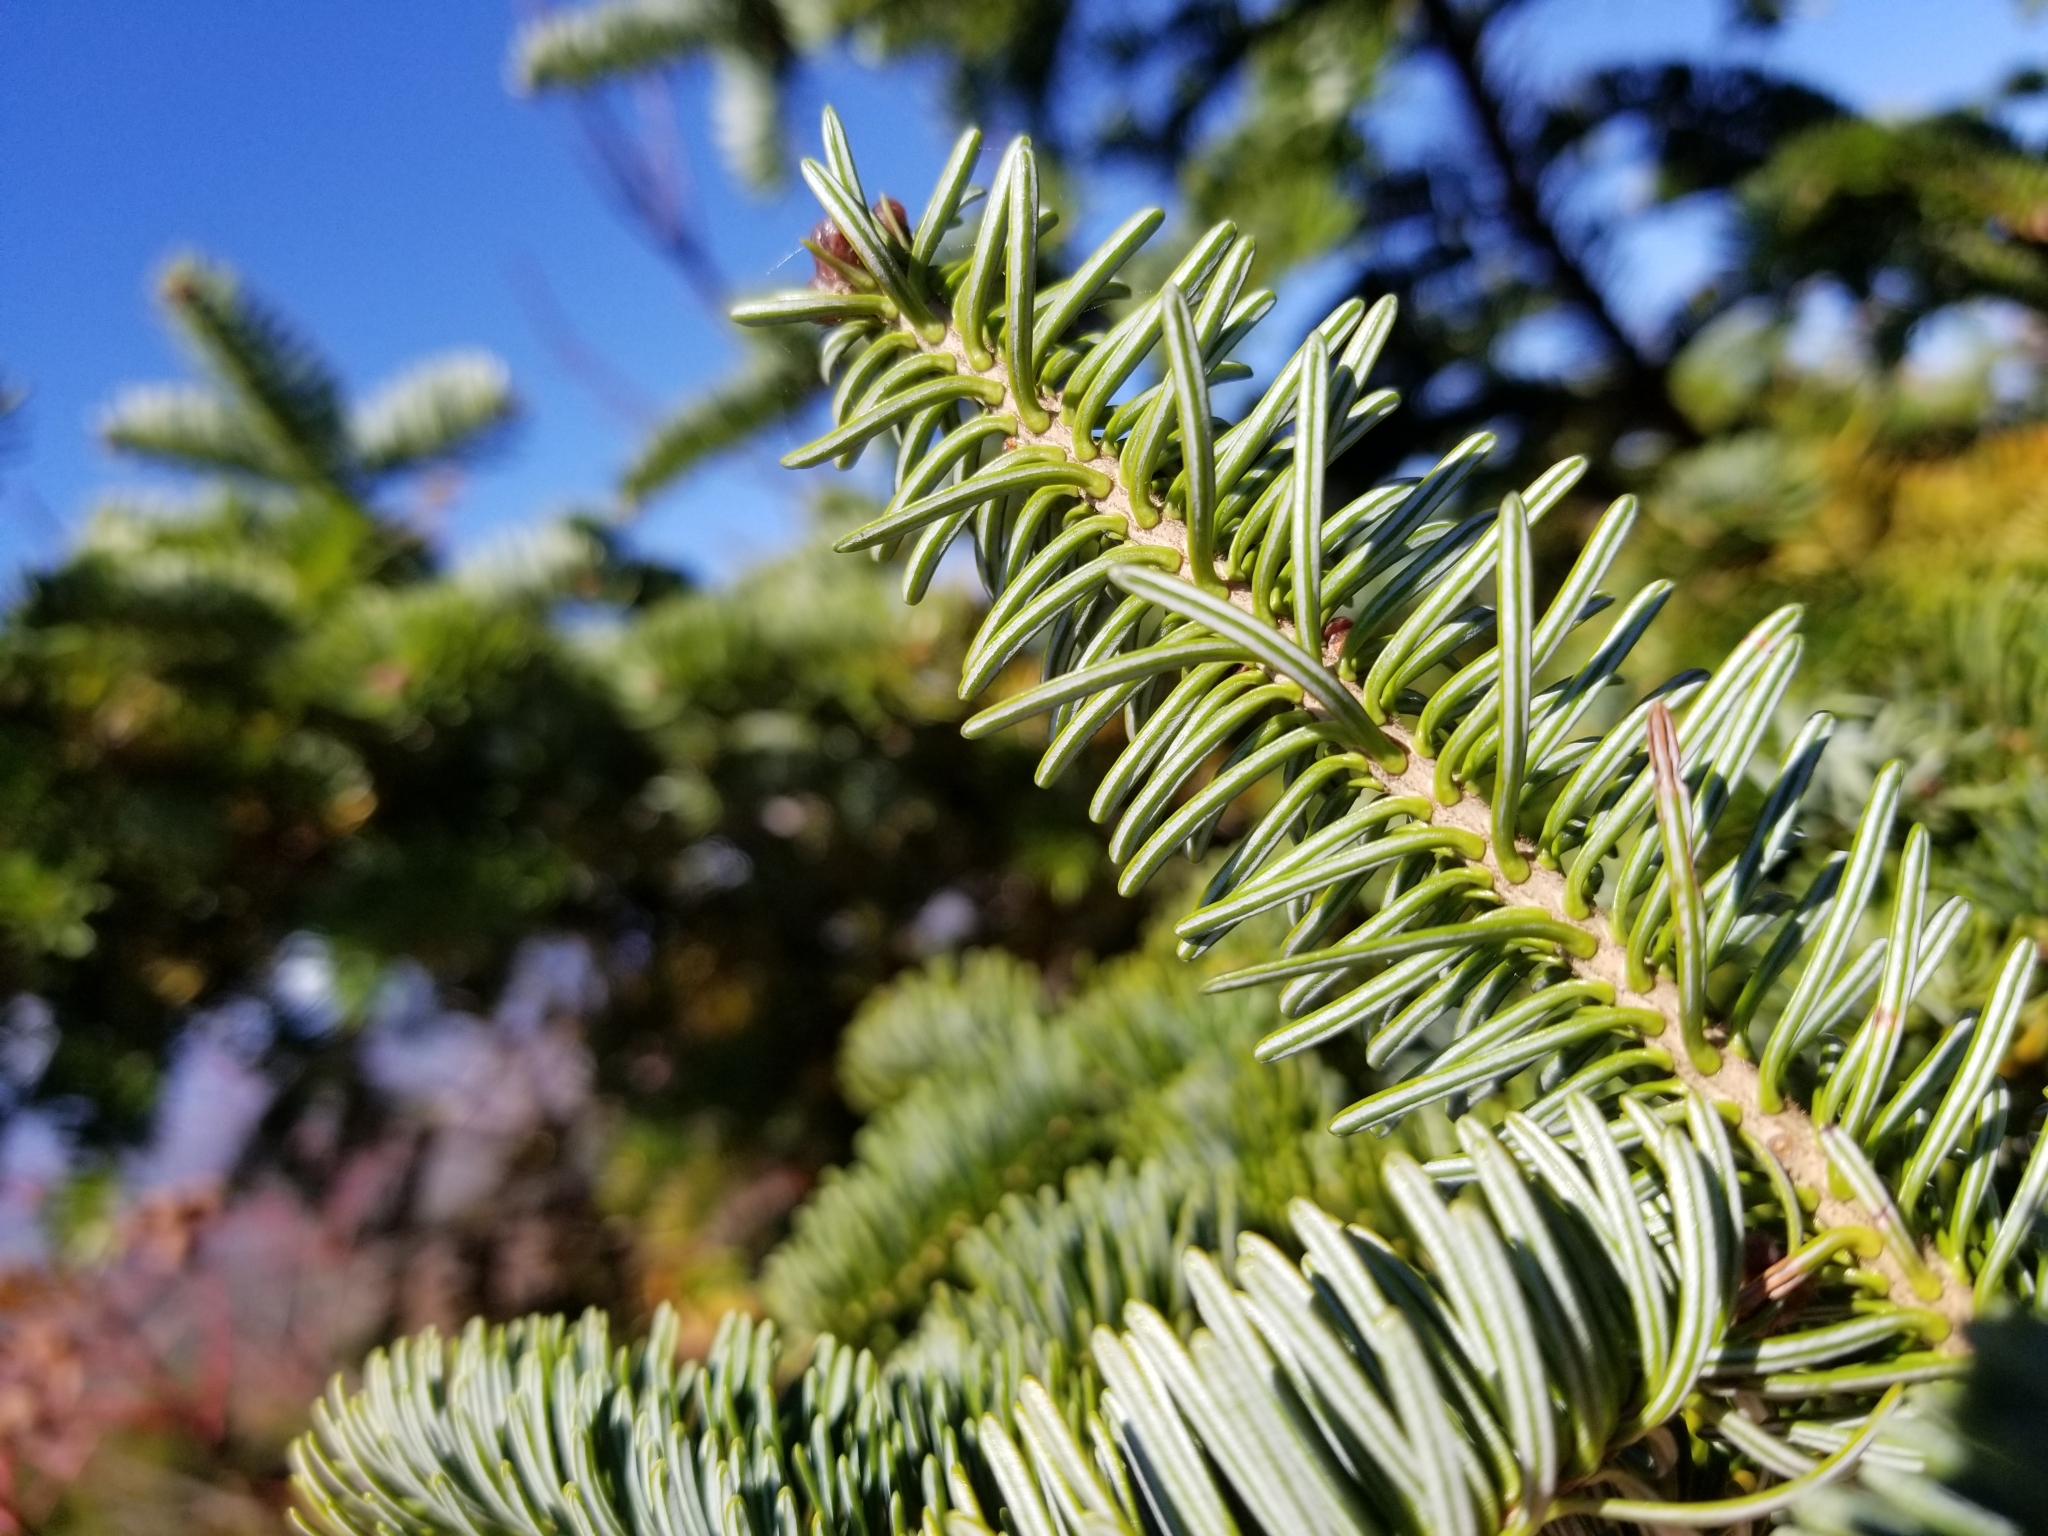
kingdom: Plantae
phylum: Tracheophyta
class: Pinopsida
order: Pinales
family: Pinaceae
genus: Abies
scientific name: Abies balsamea
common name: Balsam fir
